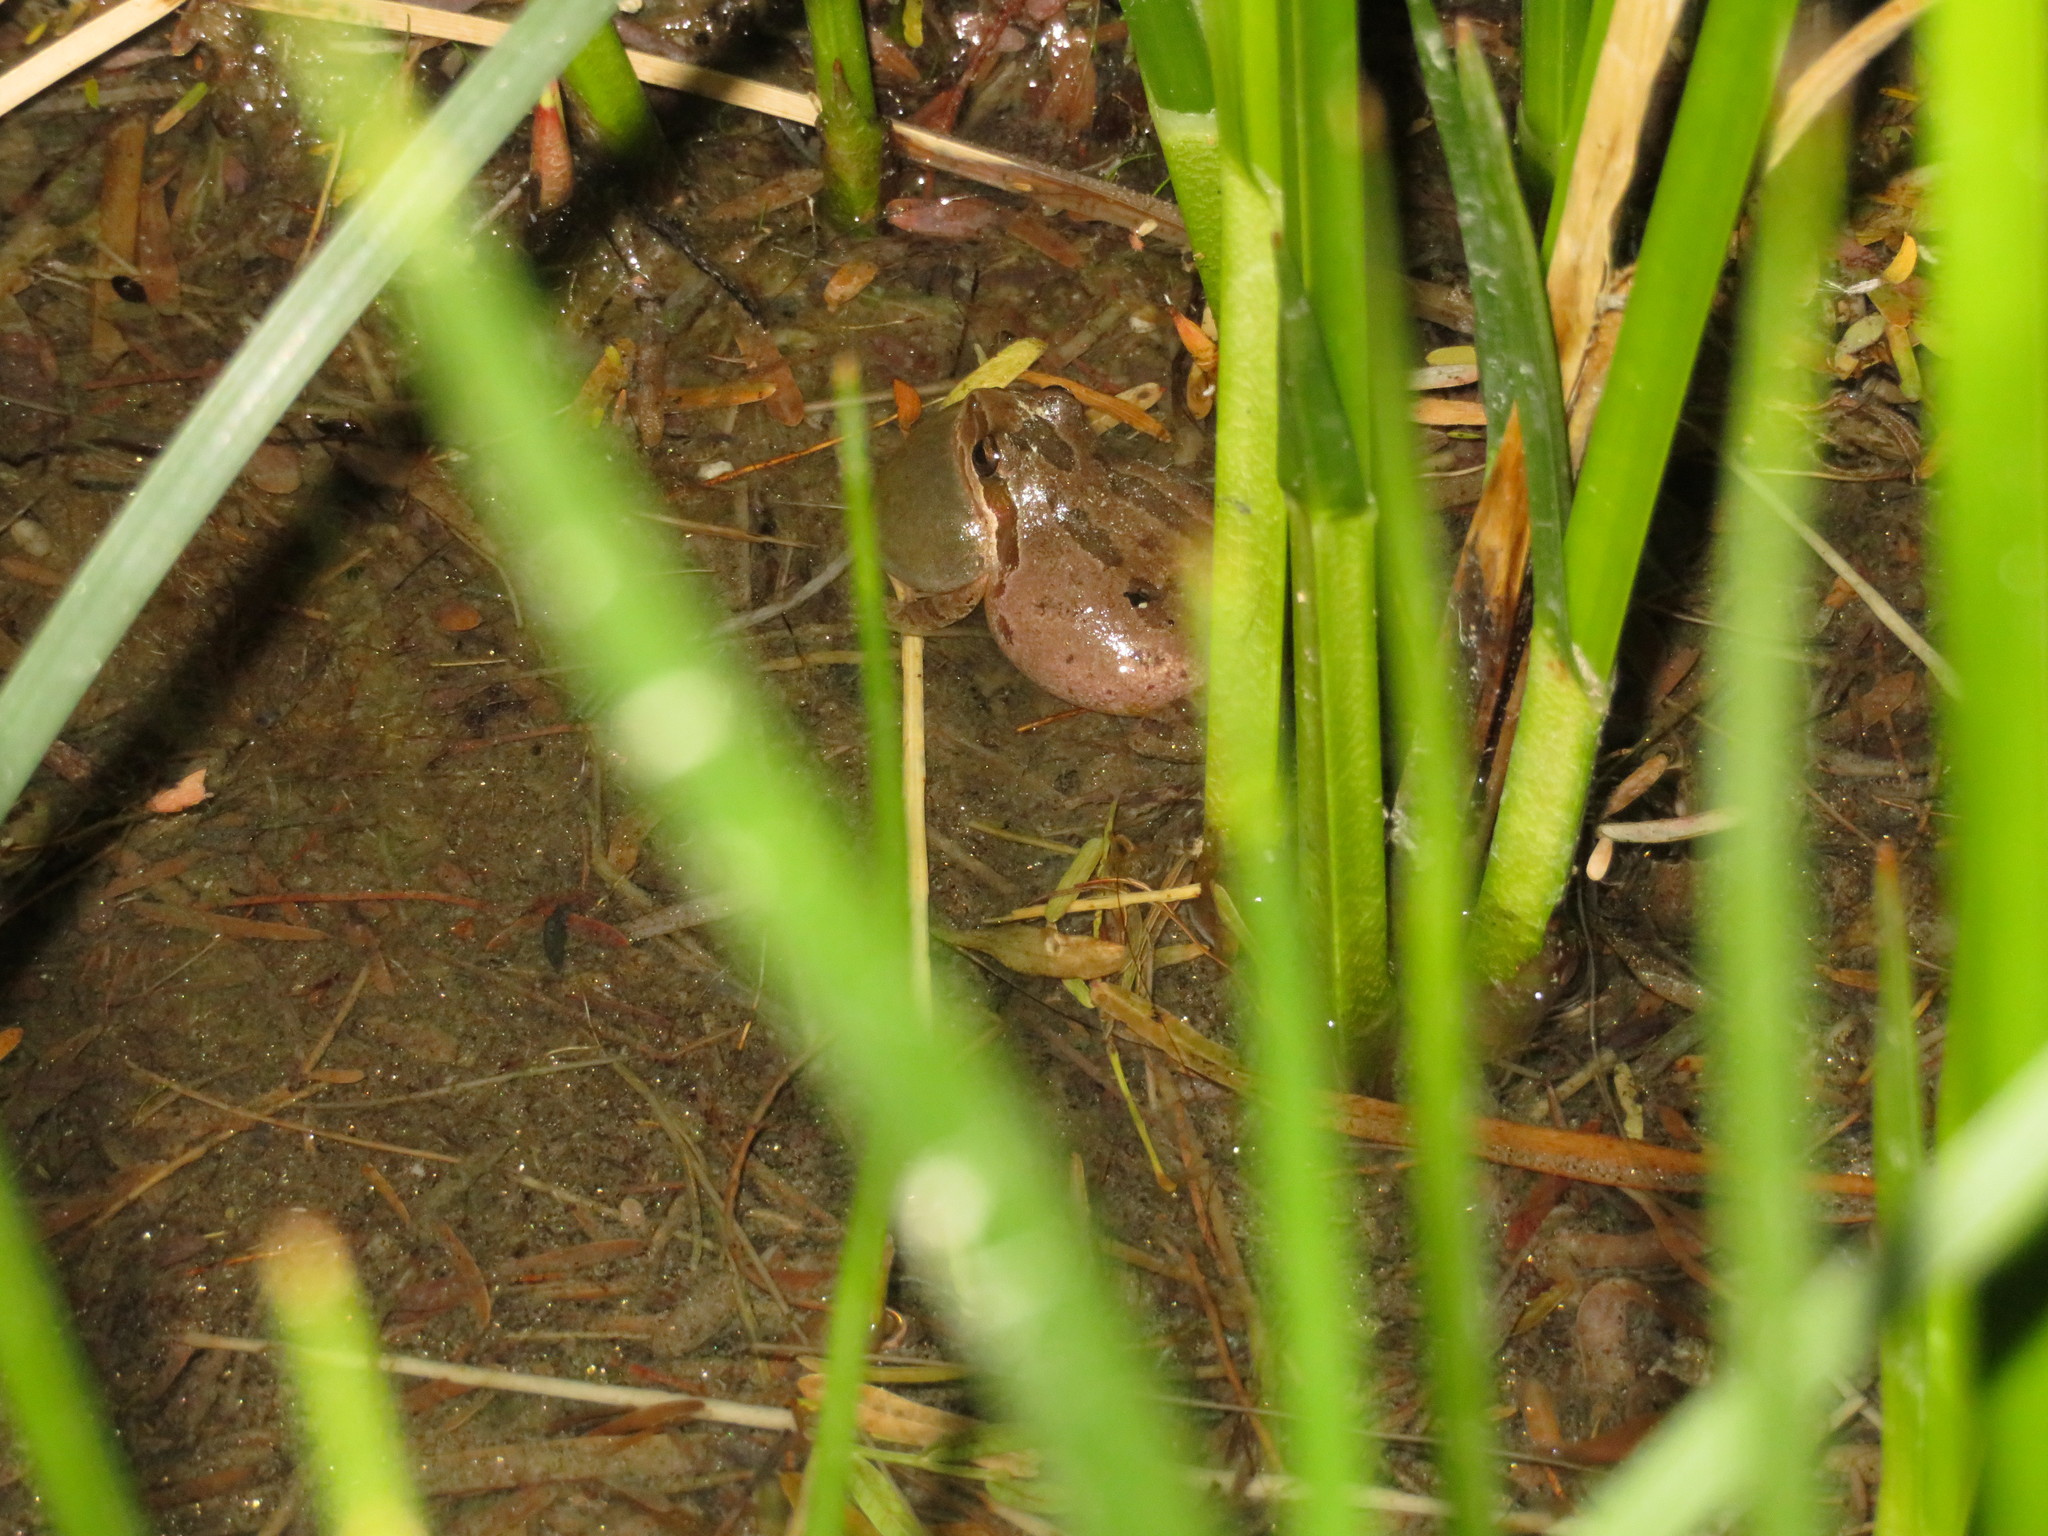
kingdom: Animalia
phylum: Chordata
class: Amphibia
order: Anura
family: Hylidae
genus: Pseudacris
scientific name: Pseudacris regilla
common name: Pacific chorus frog
